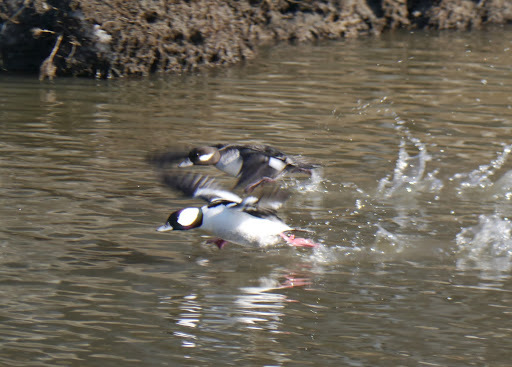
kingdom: Animalia
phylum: Chordata
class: Aves
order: Anseriformes
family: Anatidae
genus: Bucephala
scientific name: Bucephala albeola
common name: Bufflehead
